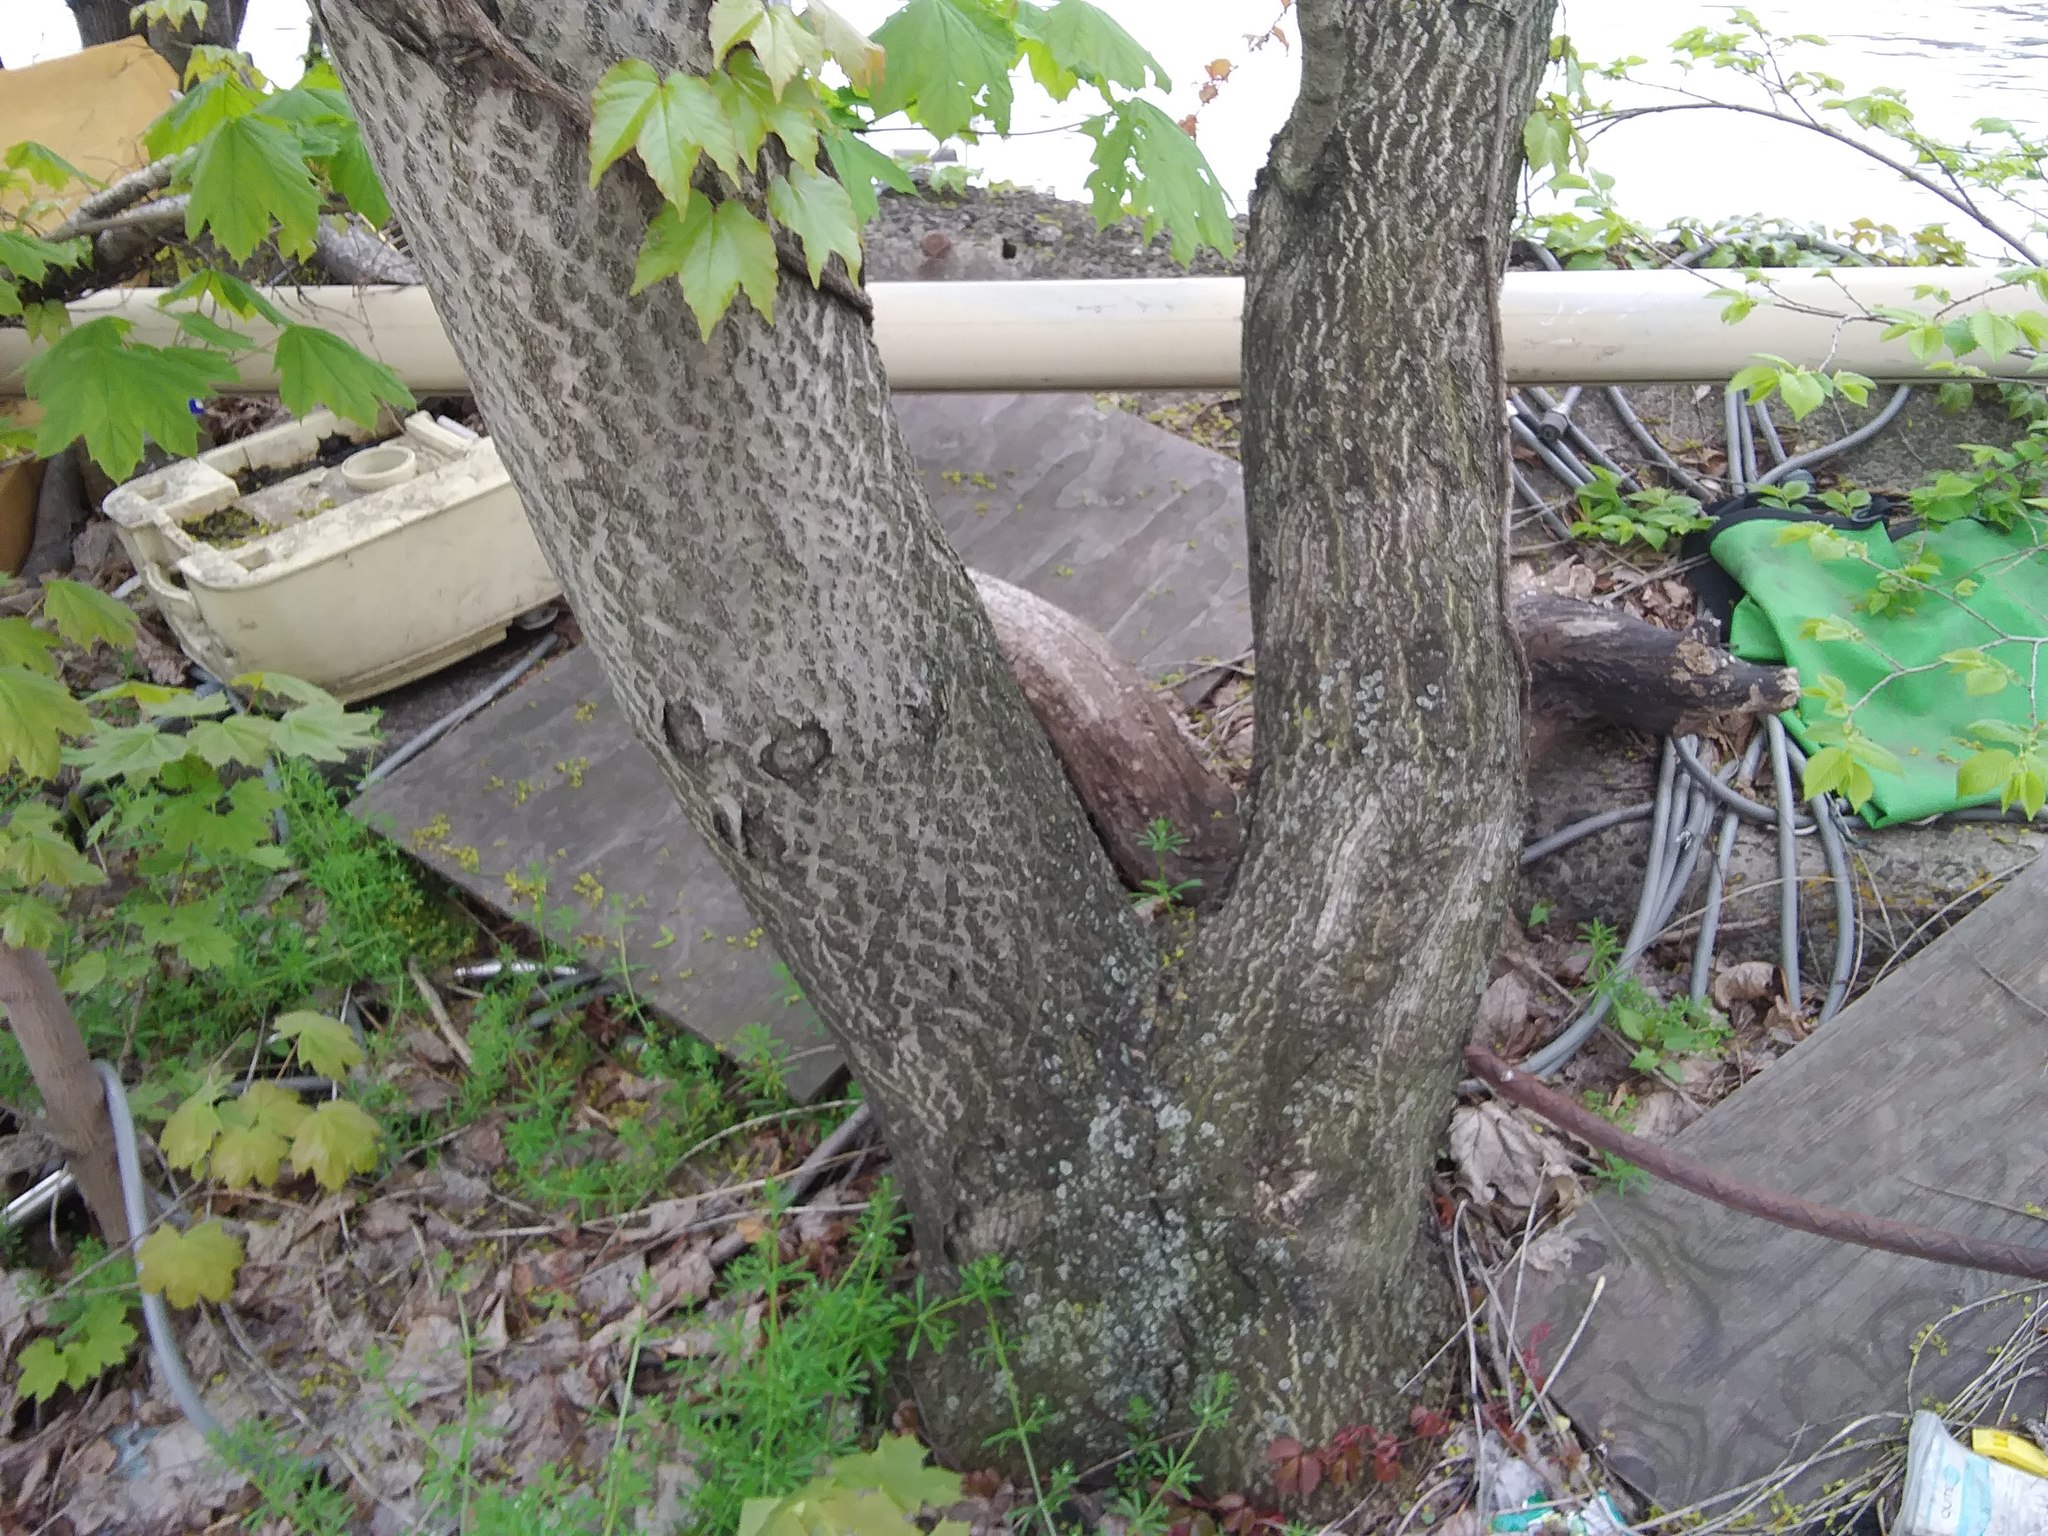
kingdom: Plantae
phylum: Tracheophyta
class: Magnoliopsida
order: Sapindales
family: Simaroubaceae
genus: Ailanthus
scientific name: Ailanthus altissima
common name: Tree-of-heaven
